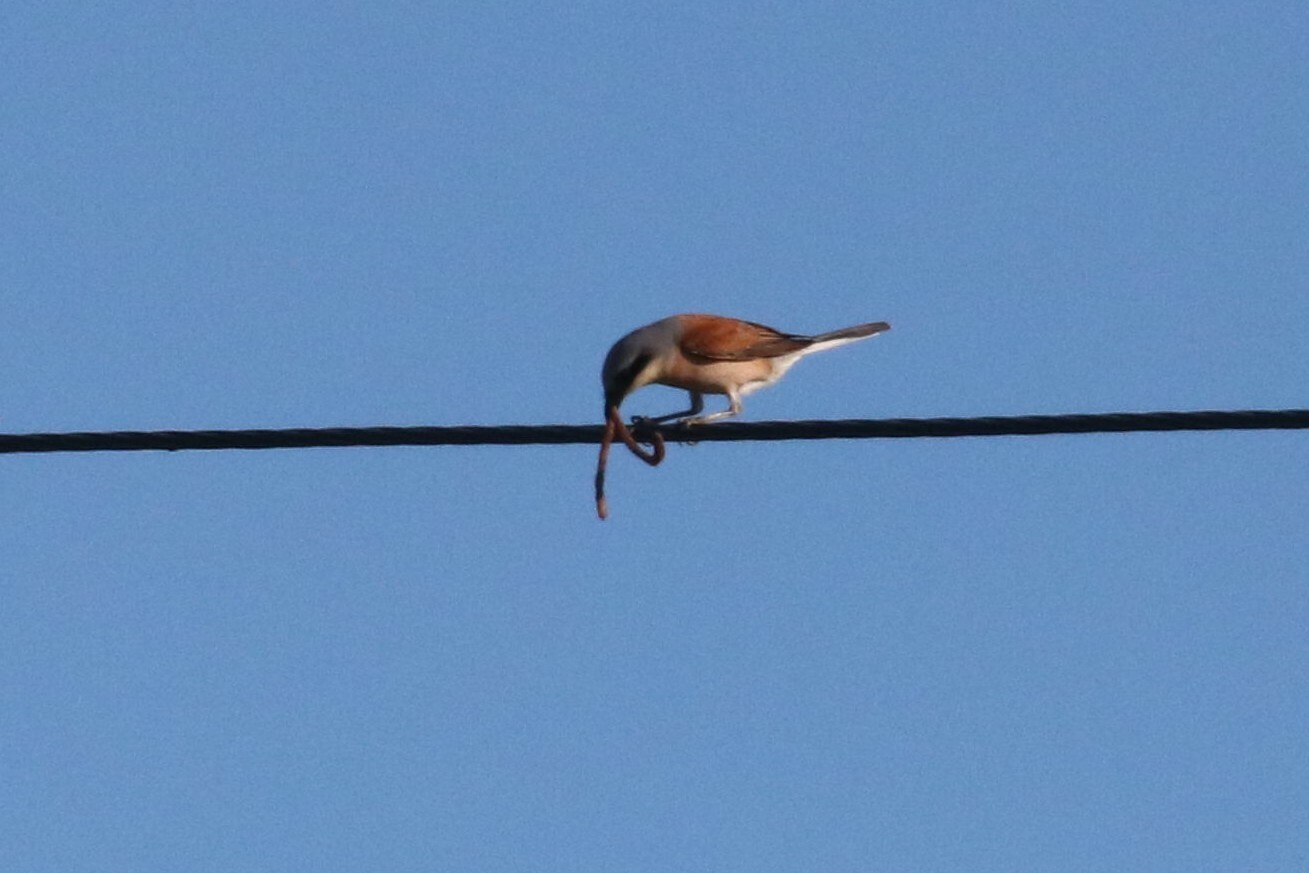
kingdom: Animalia
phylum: Chordata
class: Aves
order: Passeriformes
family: Laniidae
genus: Lanius
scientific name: Lanius collurio
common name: Red-backed shrike
